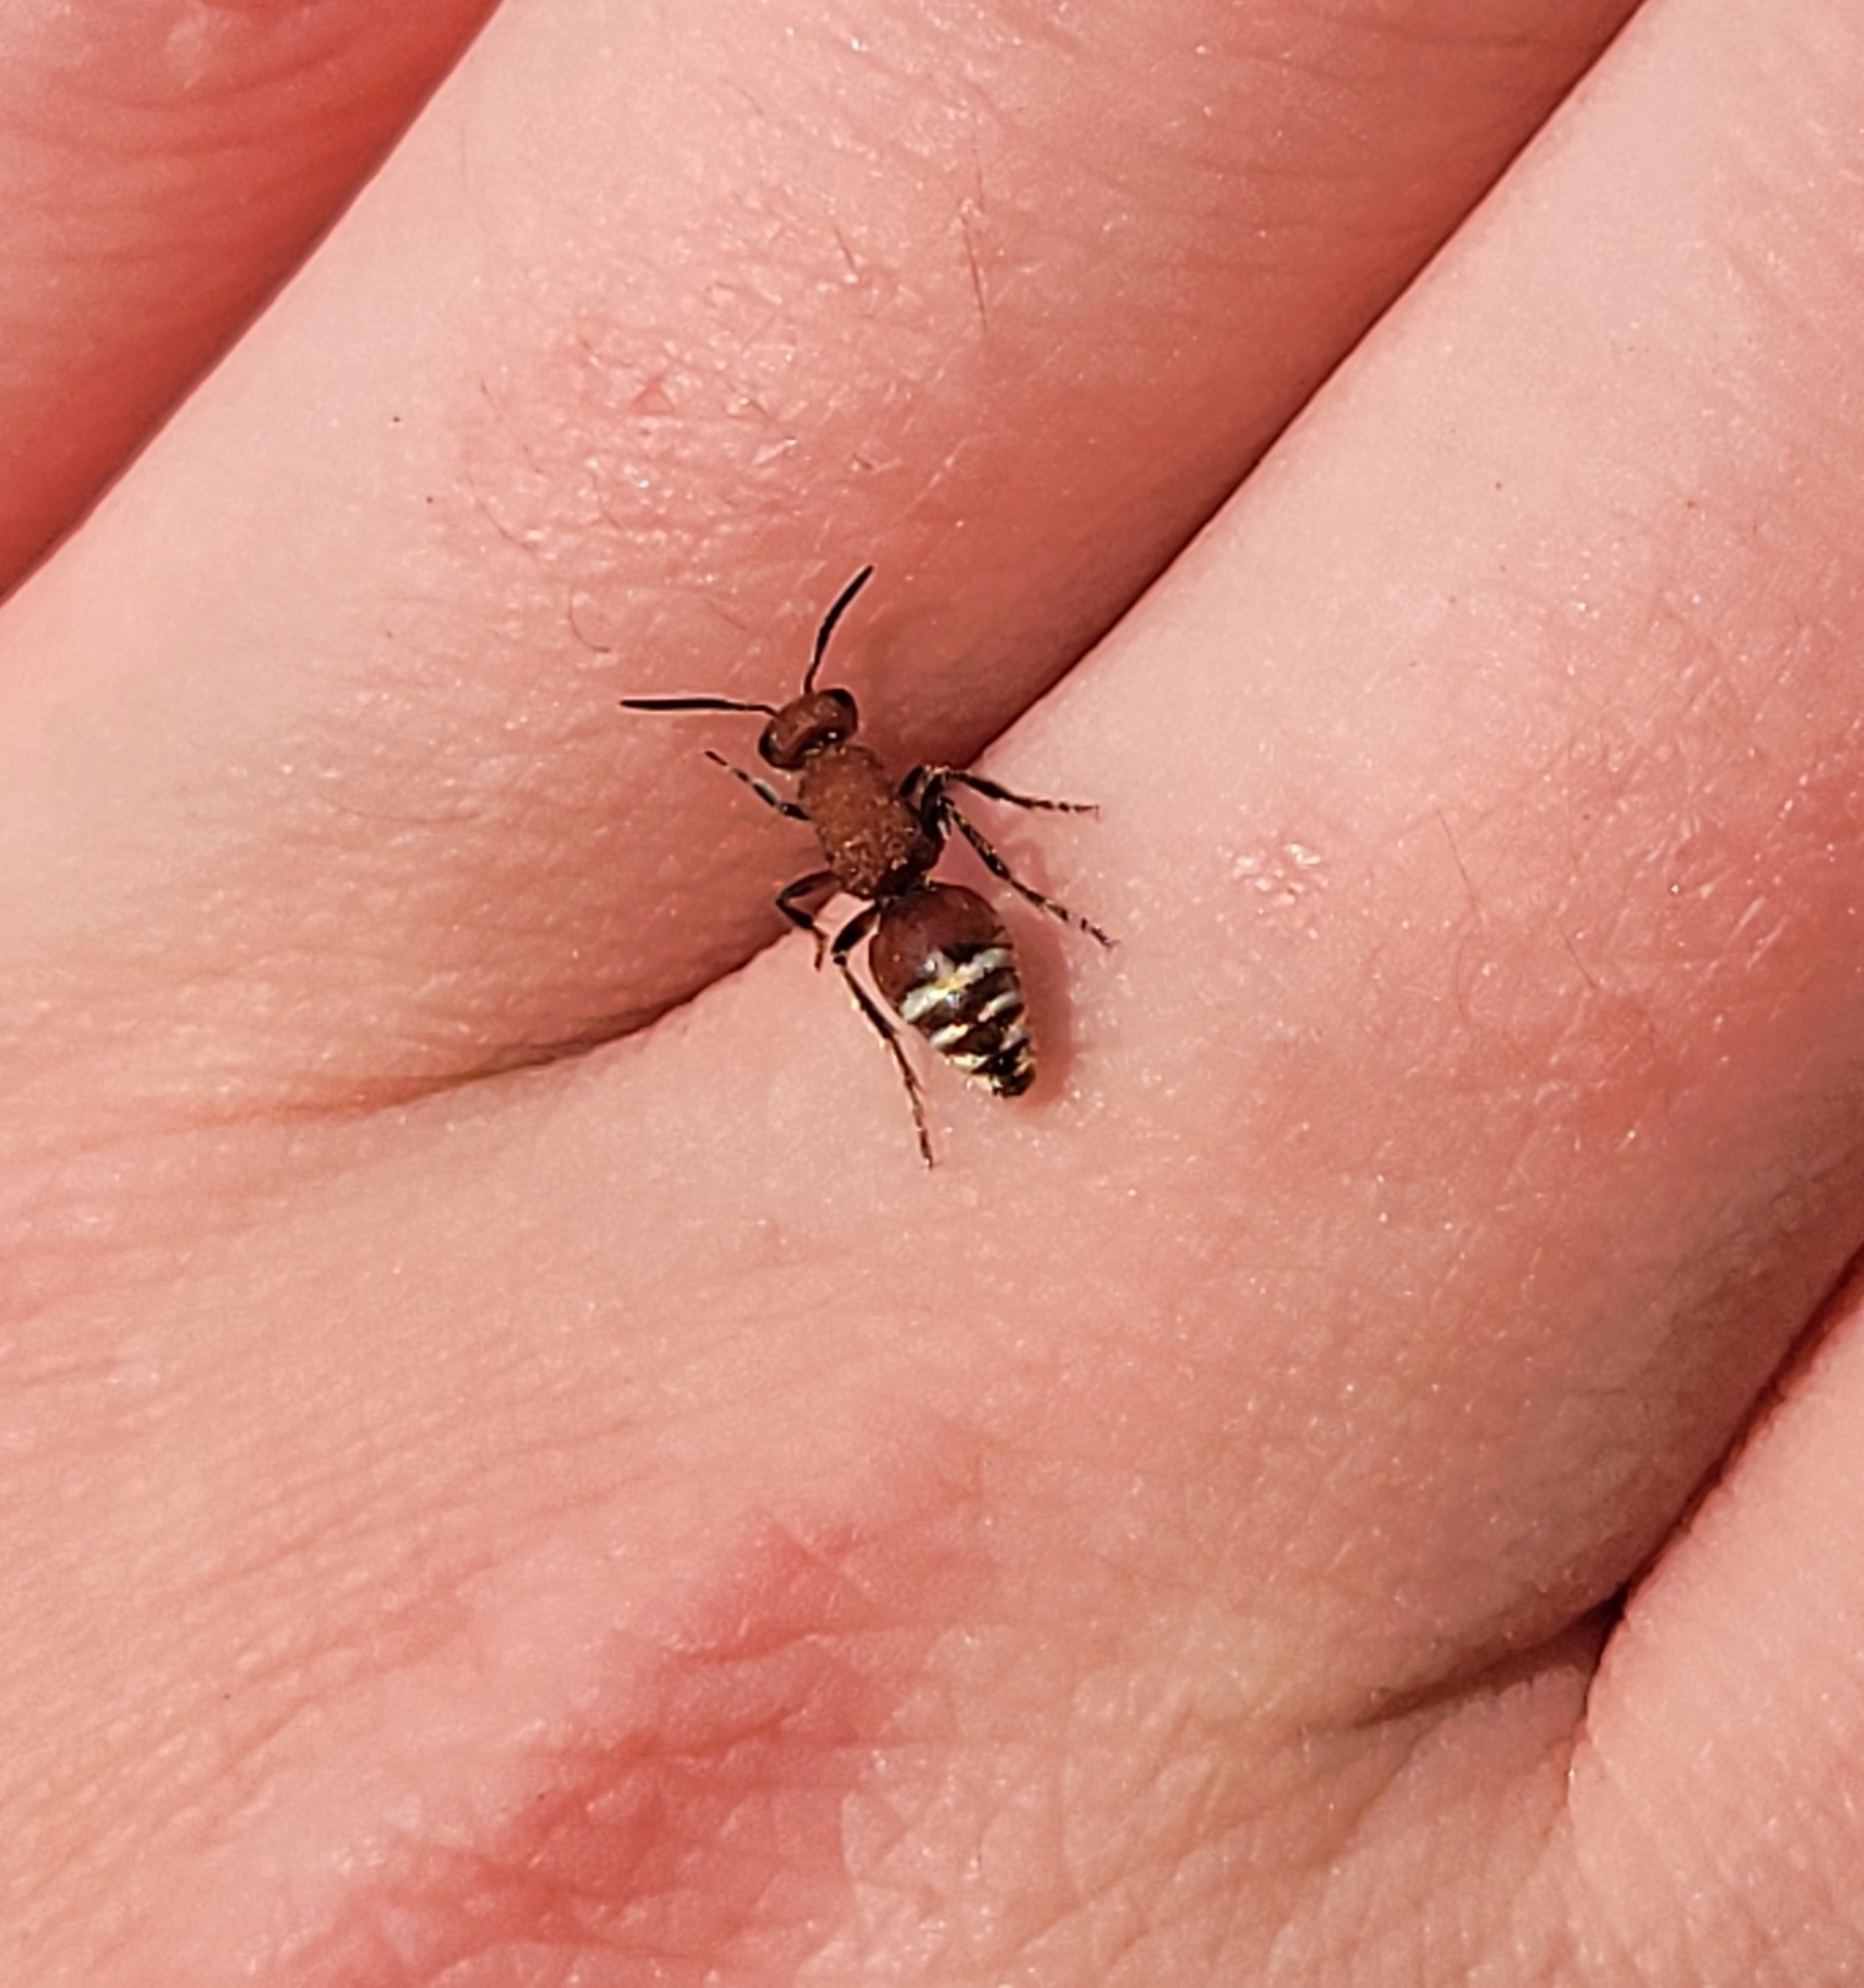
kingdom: Animalia
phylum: Arthropoda
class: Insecta
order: Hymenoptera
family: Mutillidae
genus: Timulla
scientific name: Timulla
